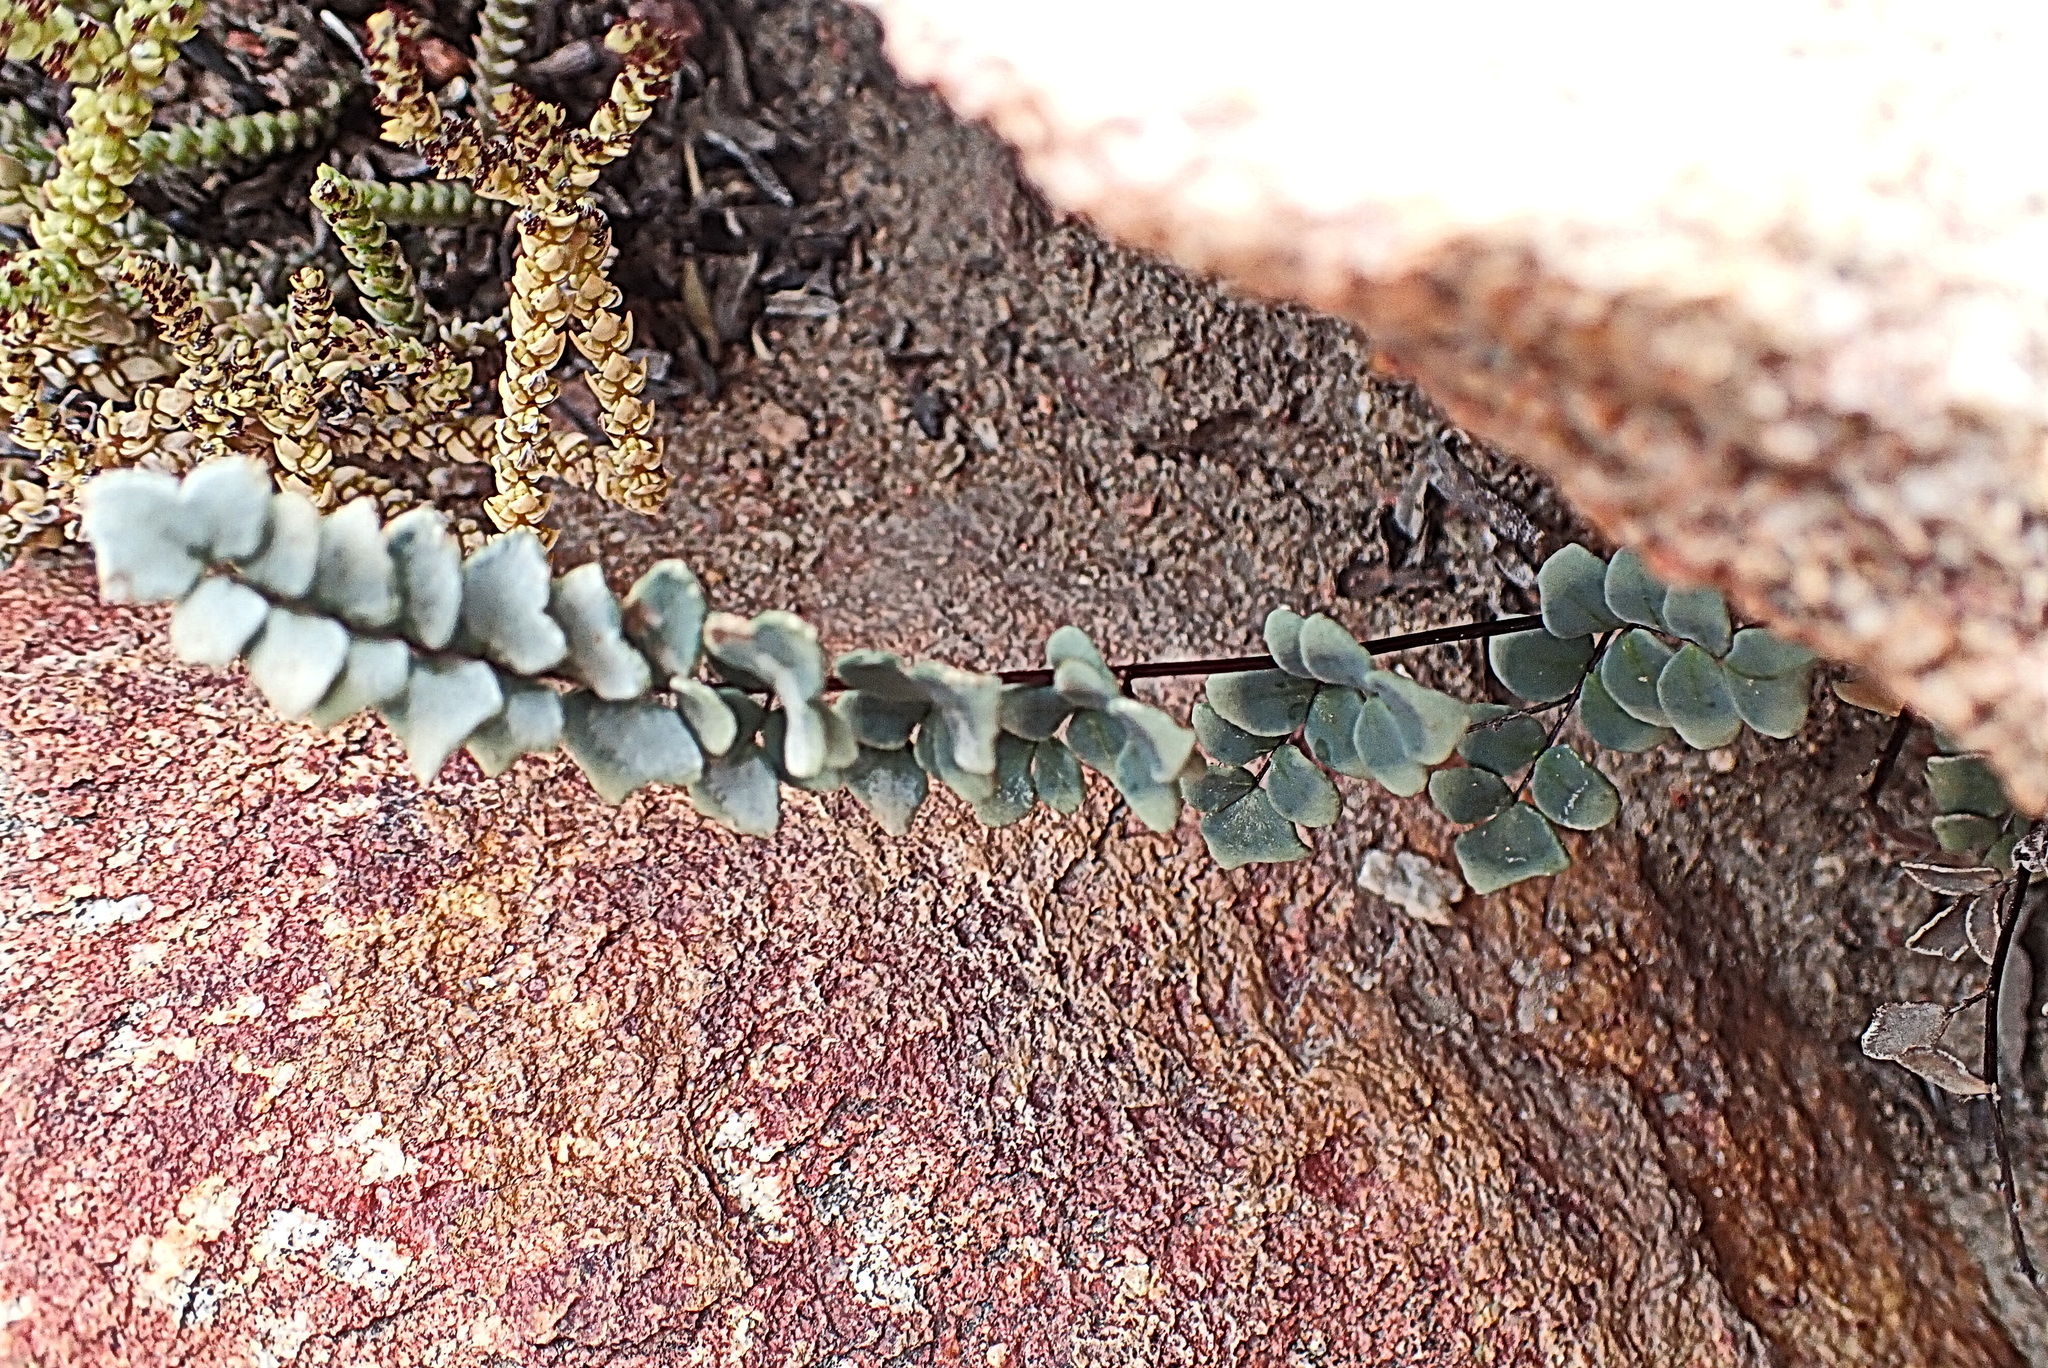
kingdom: Plantae
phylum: Tracheophyta
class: Polypodiopsida
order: Polypodiales
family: Pteridaceae
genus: Pellaea
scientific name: Pellaea leucomelas
